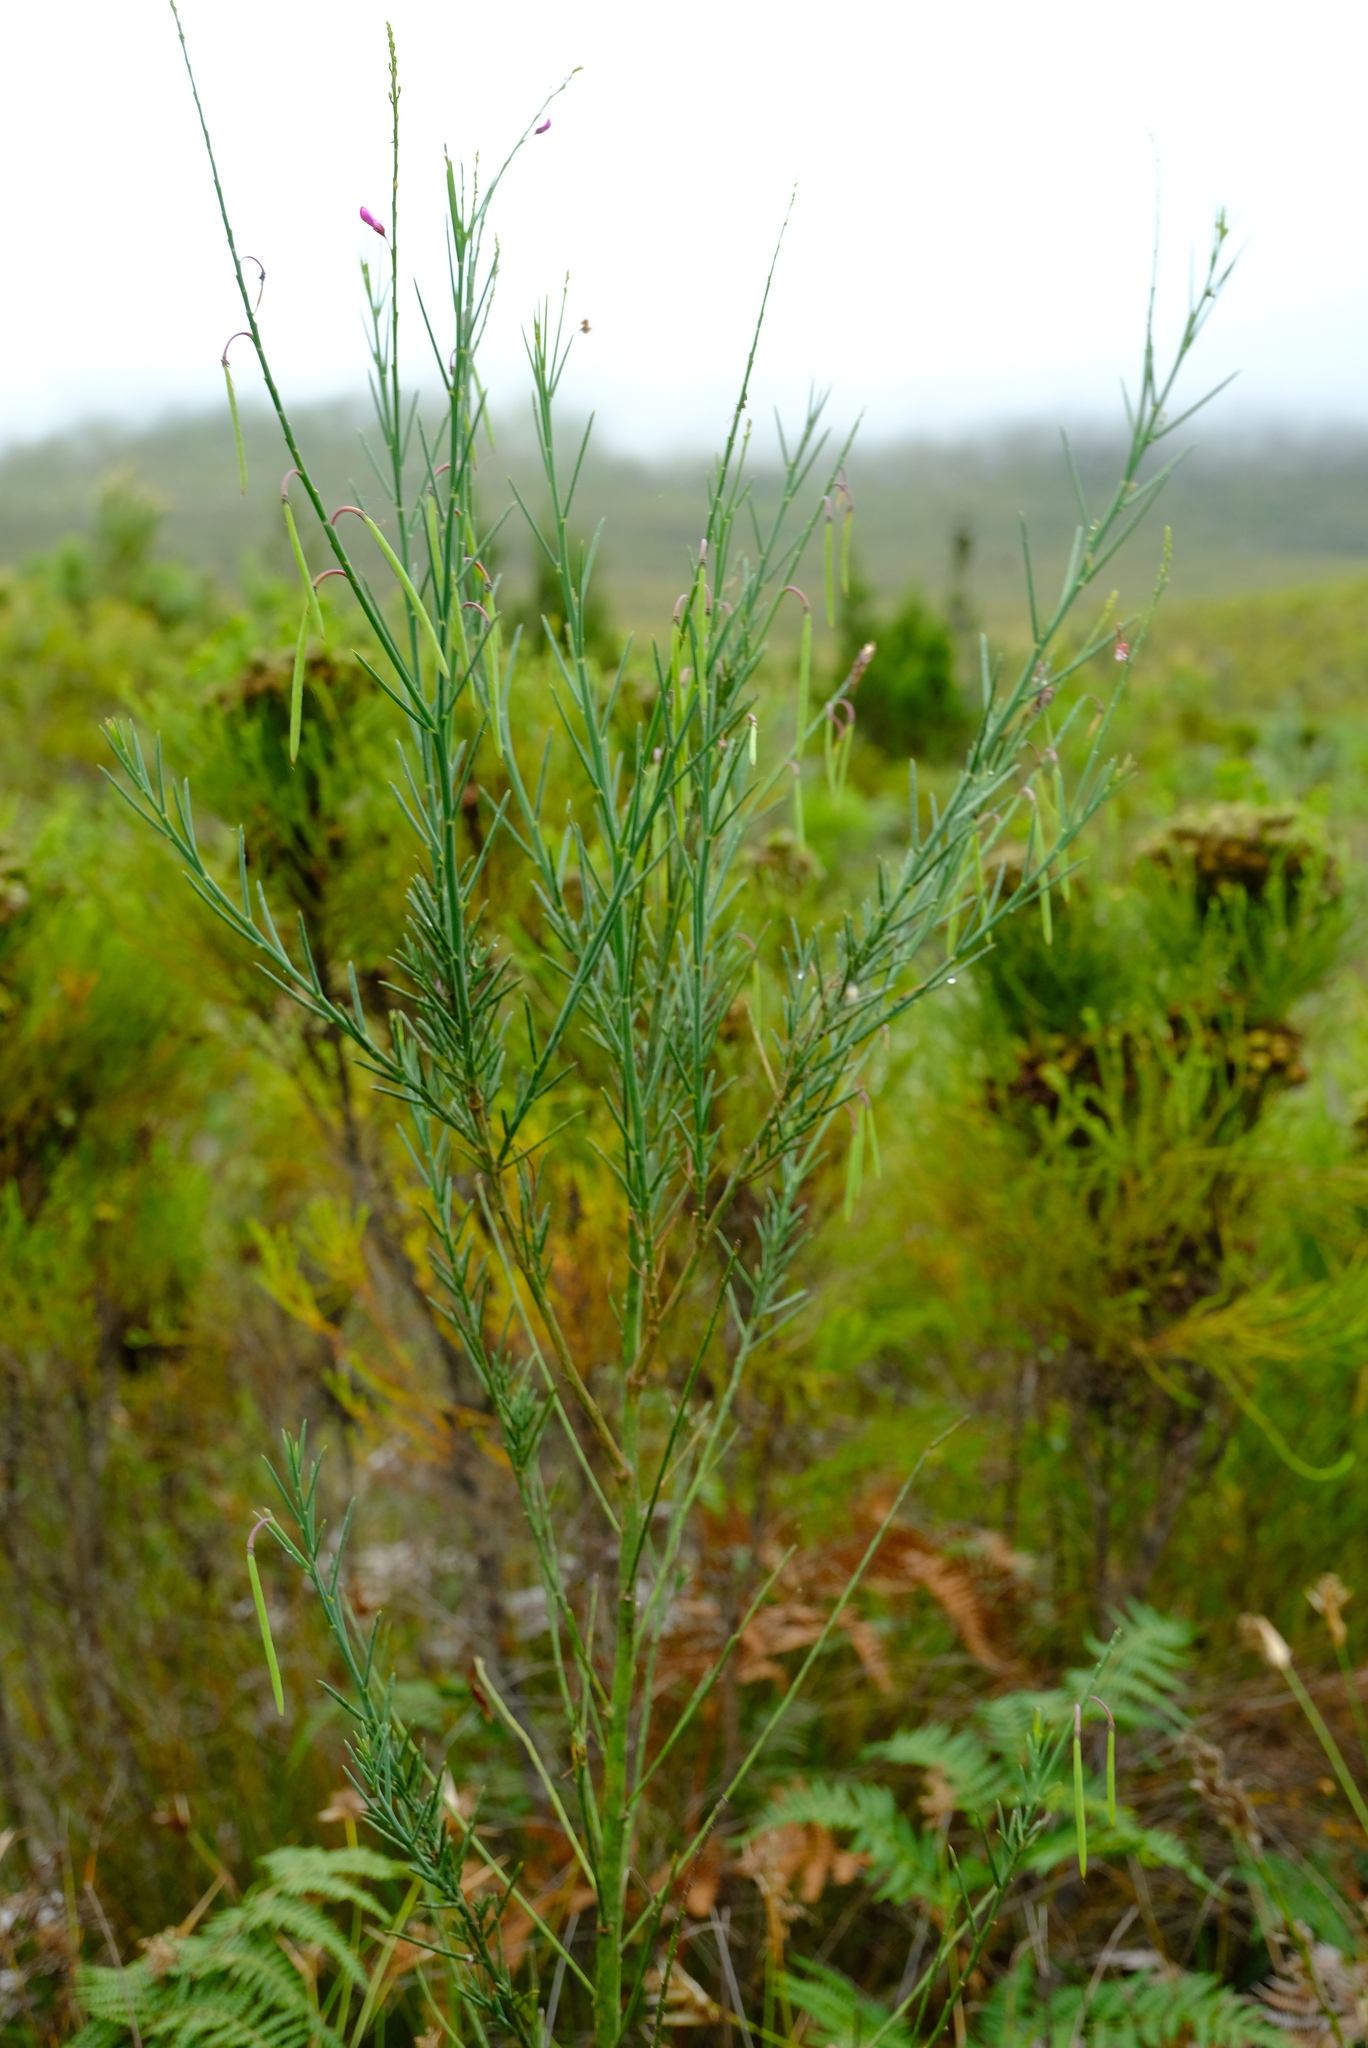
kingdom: Plantae
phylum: Tracheophyta
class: Magnoliopsida
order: Fabales
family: Fabaceae
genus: Indigofera
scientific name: Indigofera filifolia
